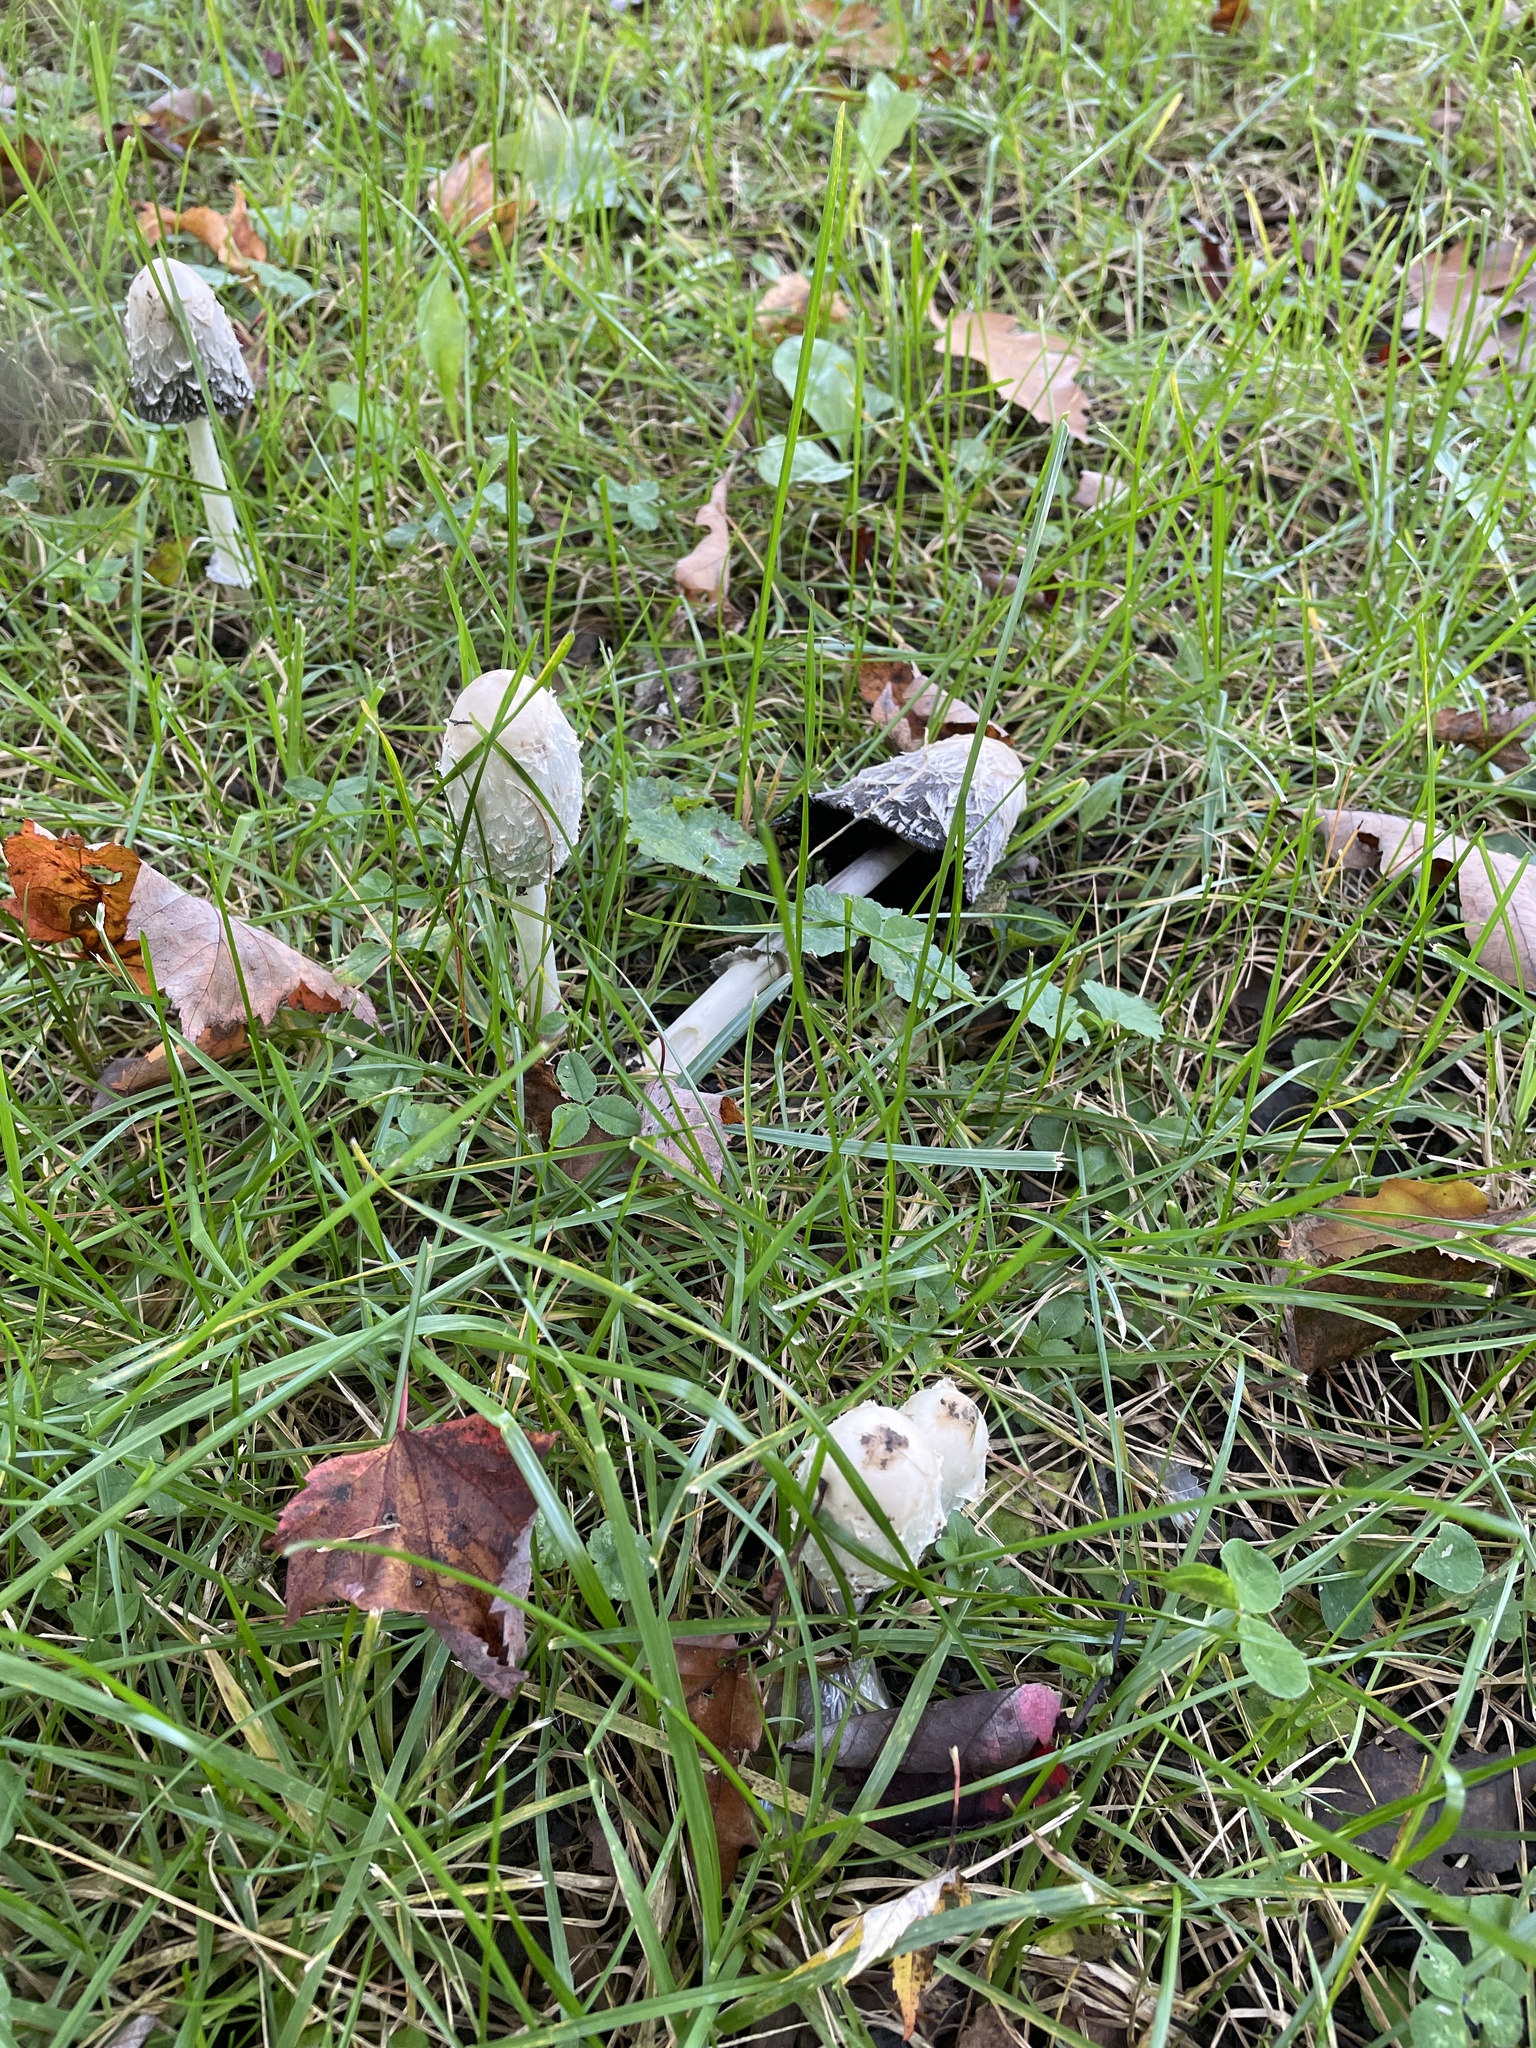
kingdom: Fungi
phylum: Basidiomycota
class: Agaricomycetes
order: Agaricales
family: Agaricaceae
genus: Coprinus
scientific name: Coprinus comatus
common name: Lawyer's wig
